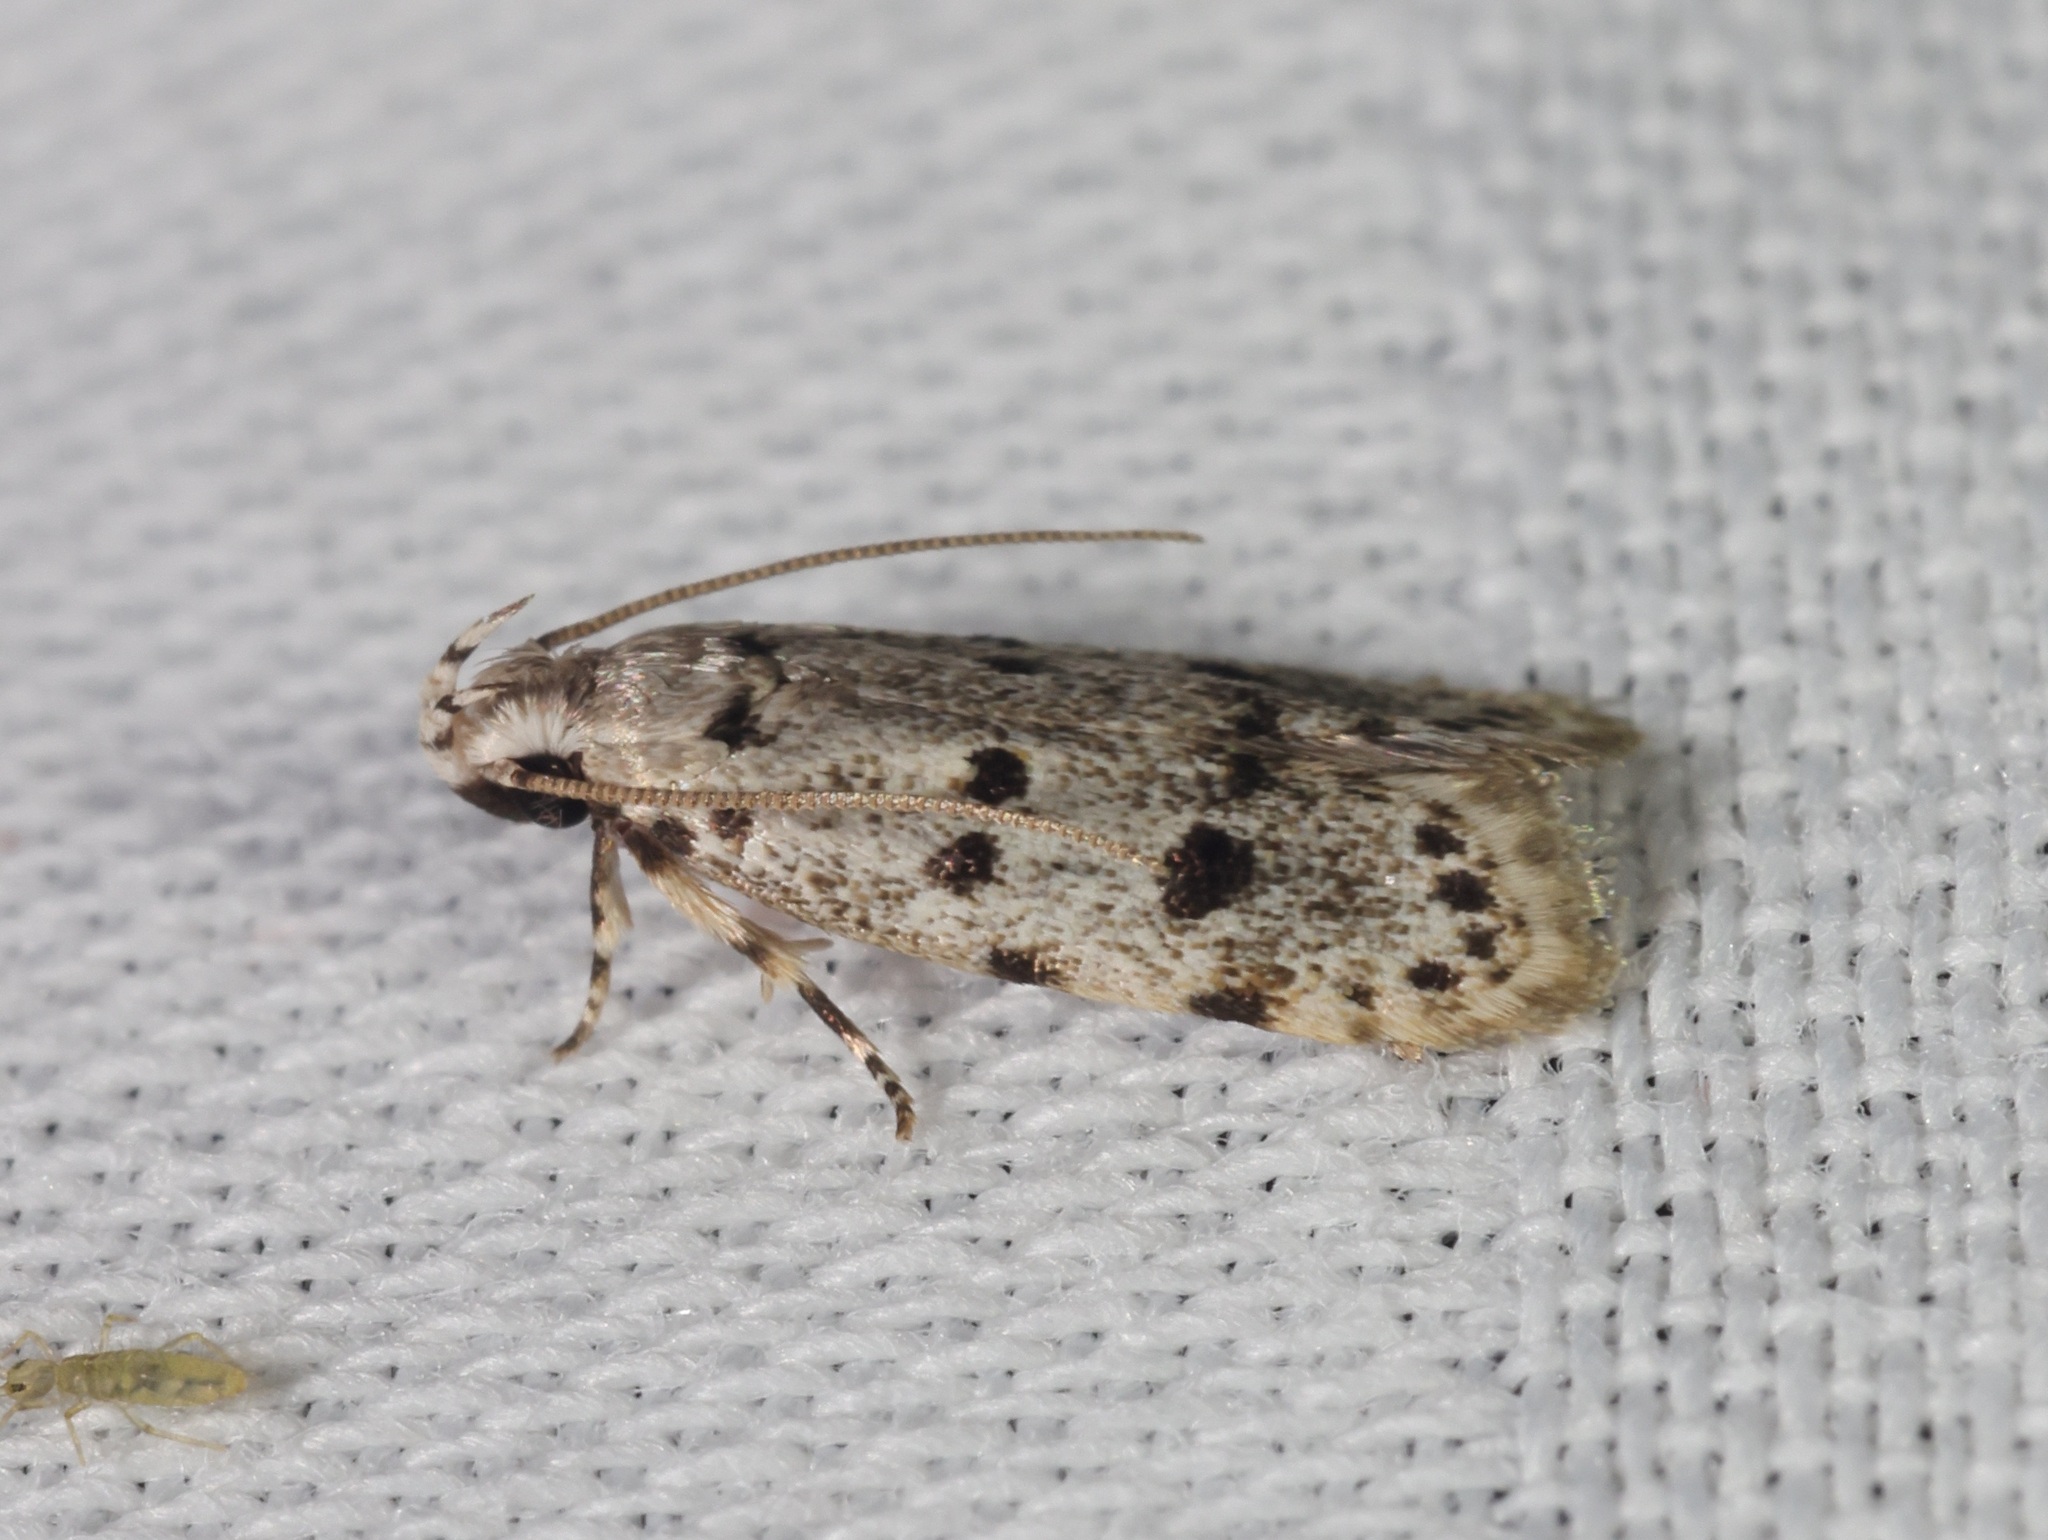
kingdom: Animalia
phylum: Arthropoda
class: Insecta
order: Lepidoptera
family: Autostichidae
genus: Autosticha
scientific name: Autosticha calceata
